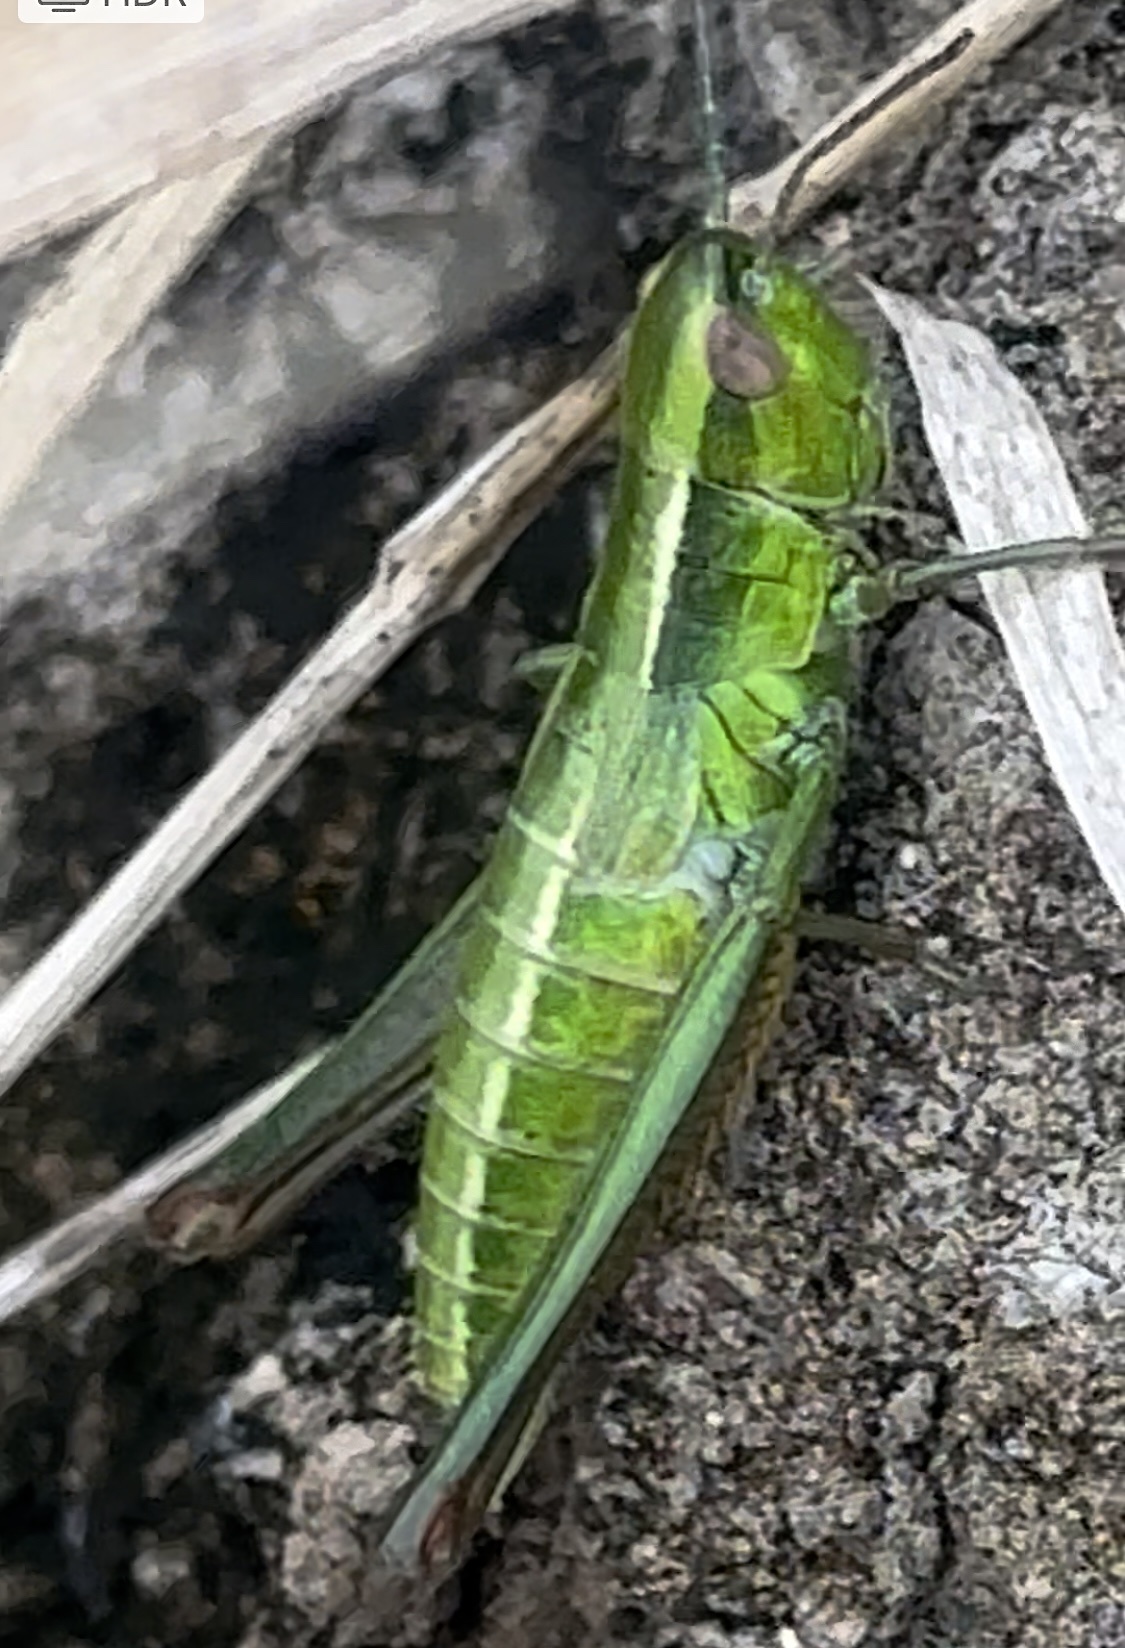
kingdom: Animalia
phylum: Arthropoda
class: Insecta
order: Orthoptera
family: Acrididae
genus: Euthystira
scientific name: Euthystira brachyptera
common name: Small gold grasshopper
